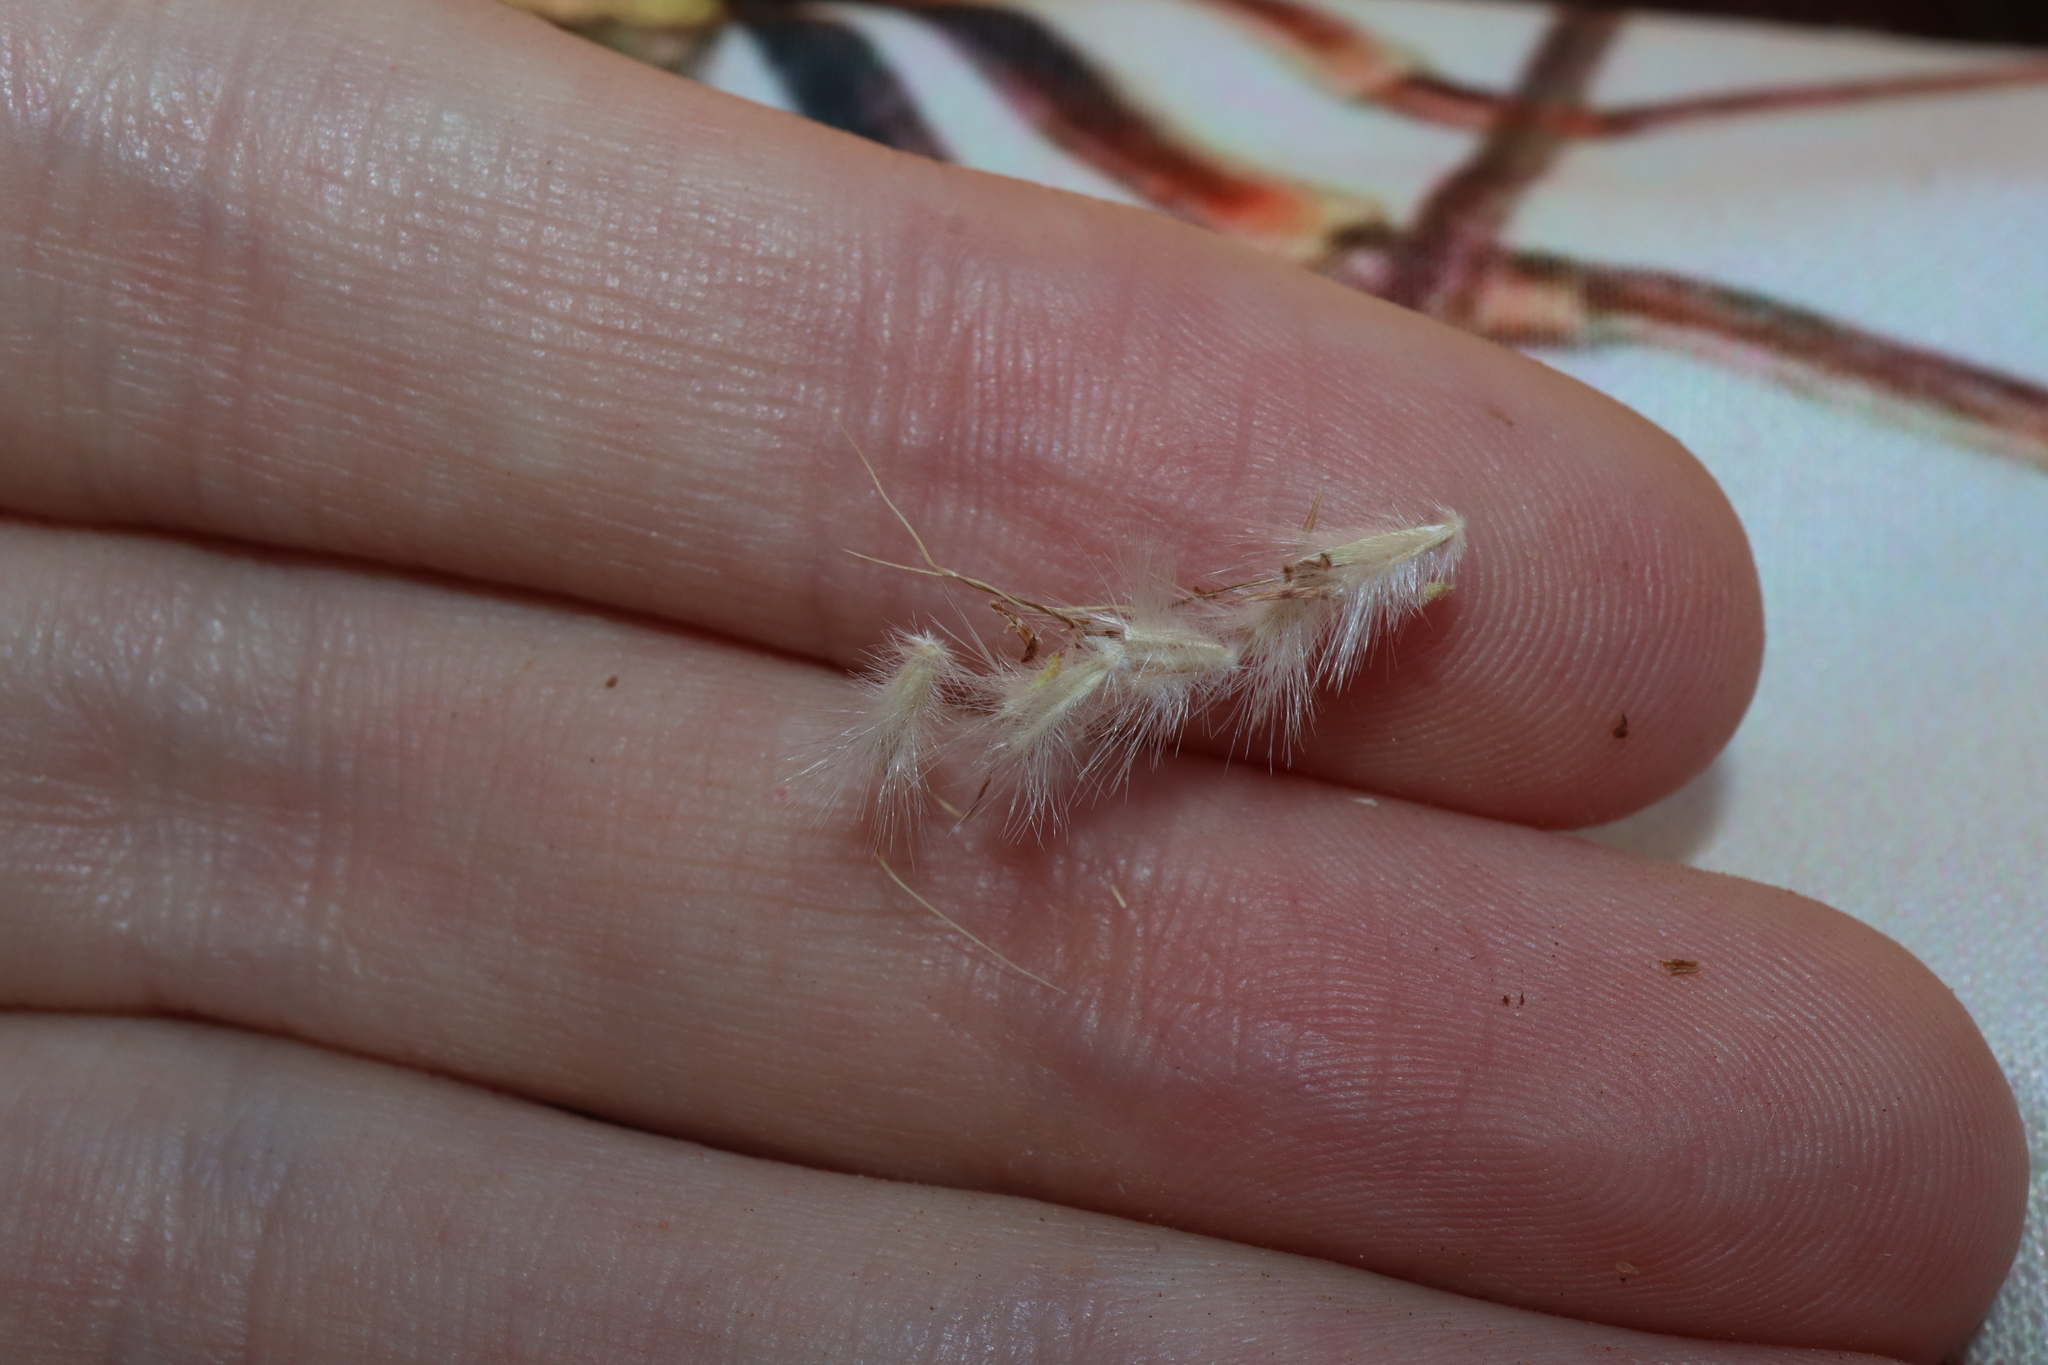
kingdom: Plantae
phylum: Tracheophyta
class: Liliopsida
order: Poales
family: Poaceae
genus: Cymbopogon
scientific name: Cymbopogon ambiguus
